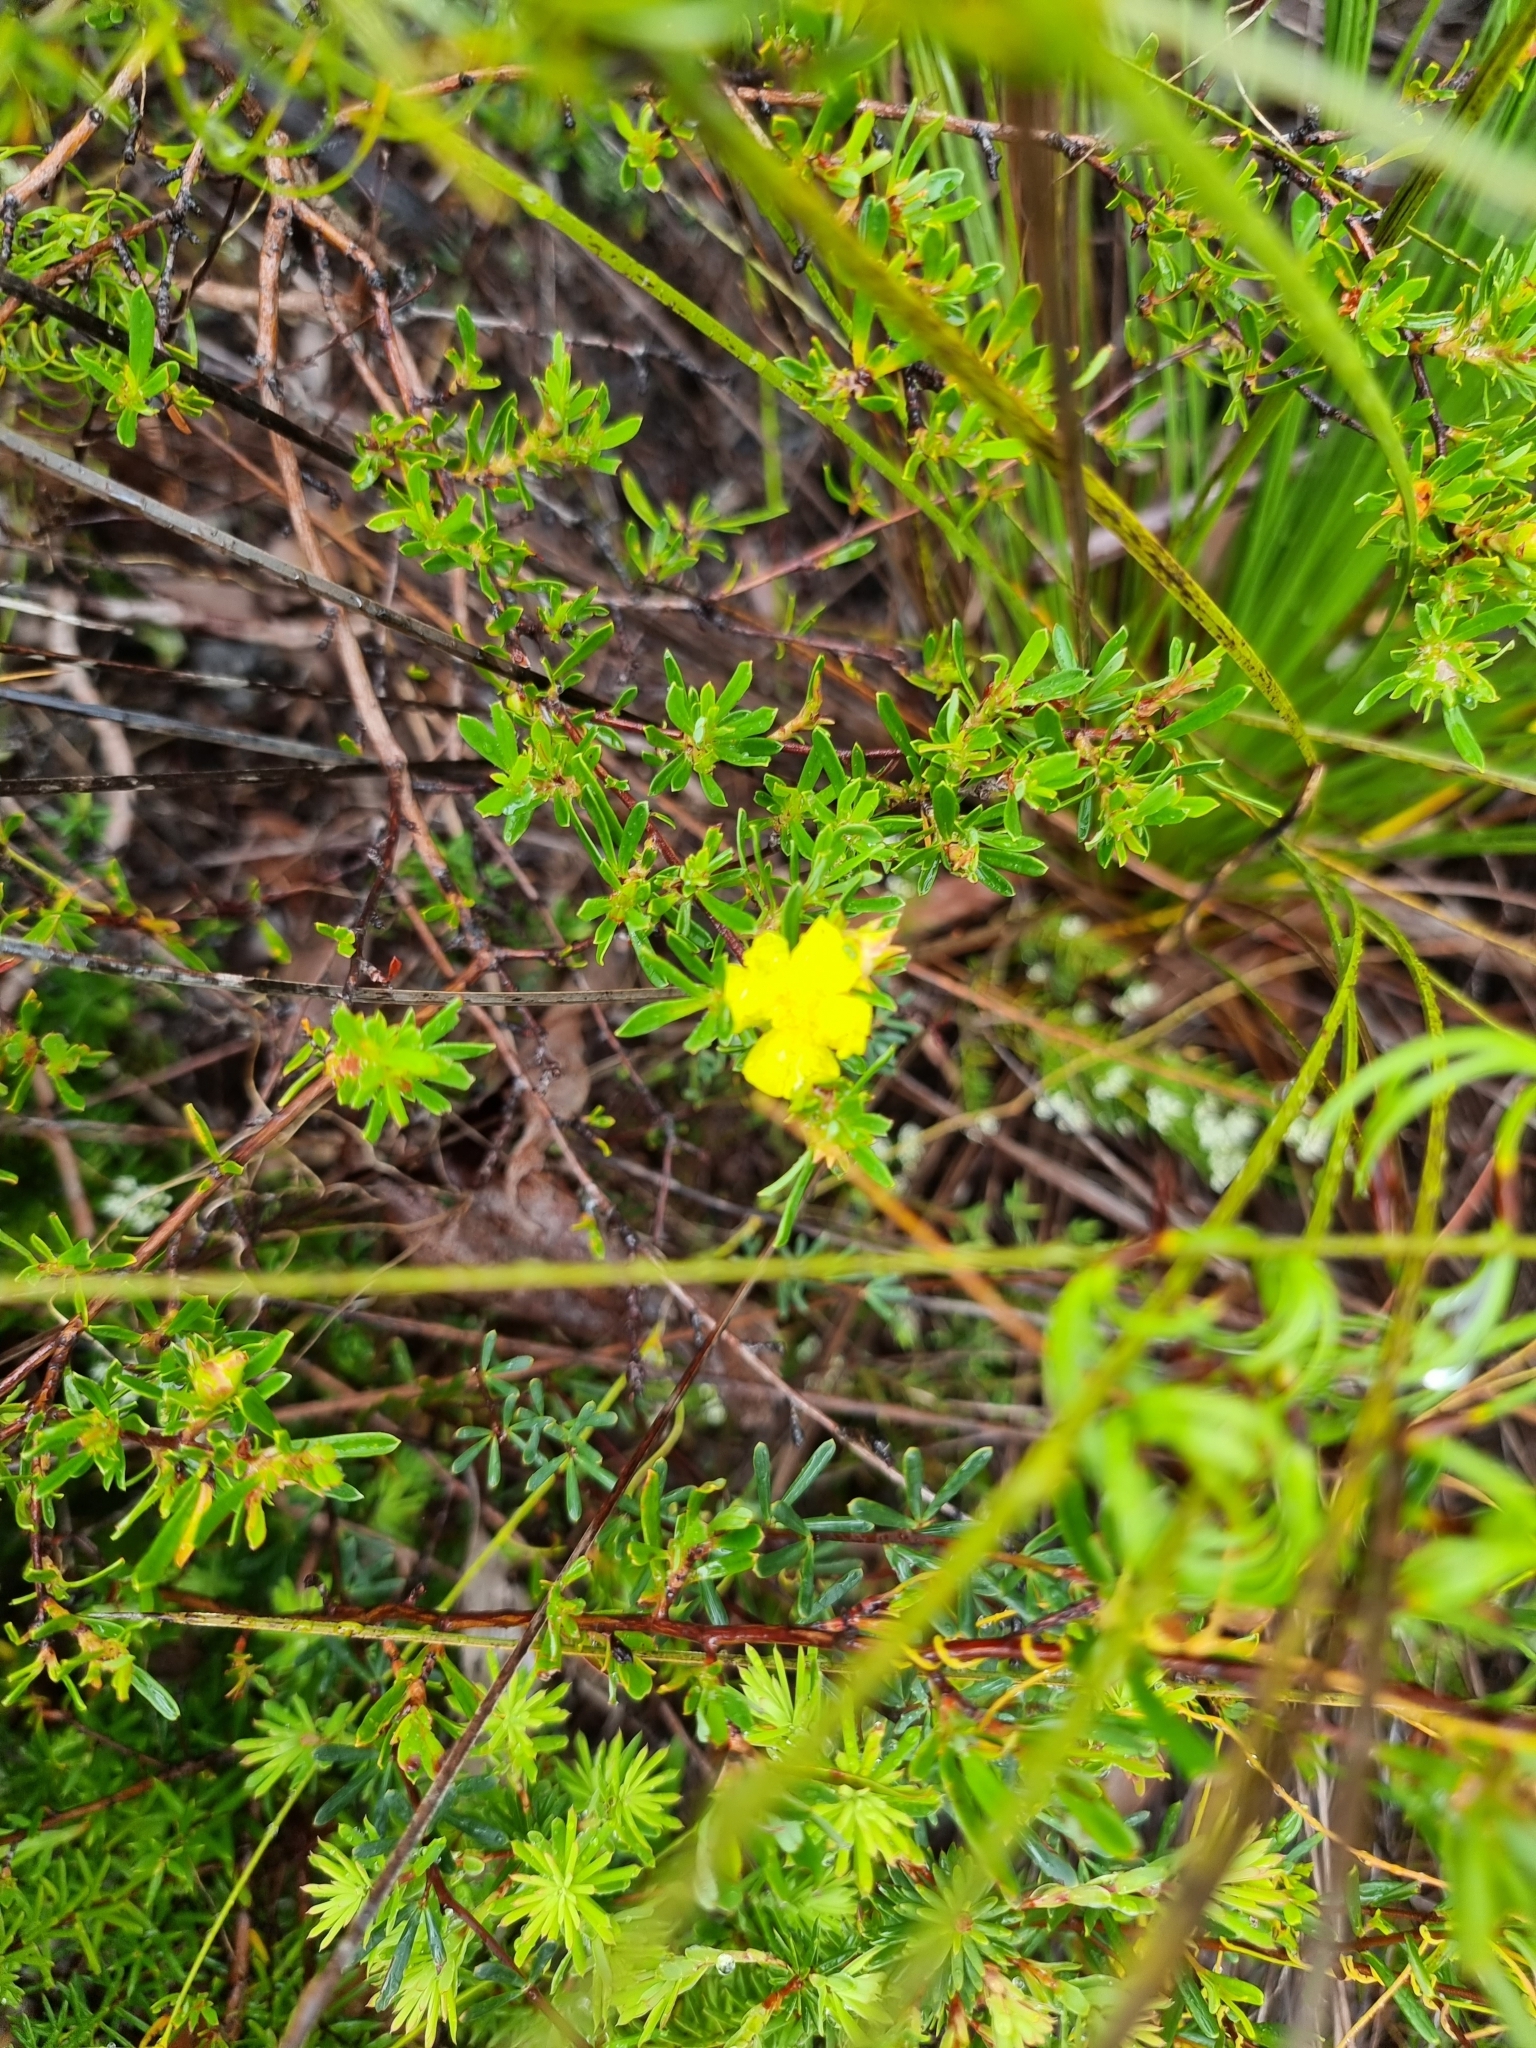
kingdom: Plantae
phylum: Tracheophyta
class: Magnoliopsida
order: Dilleniales
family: Dilleniaceae
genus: Hibbertia
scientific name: Hibbertia linearis
